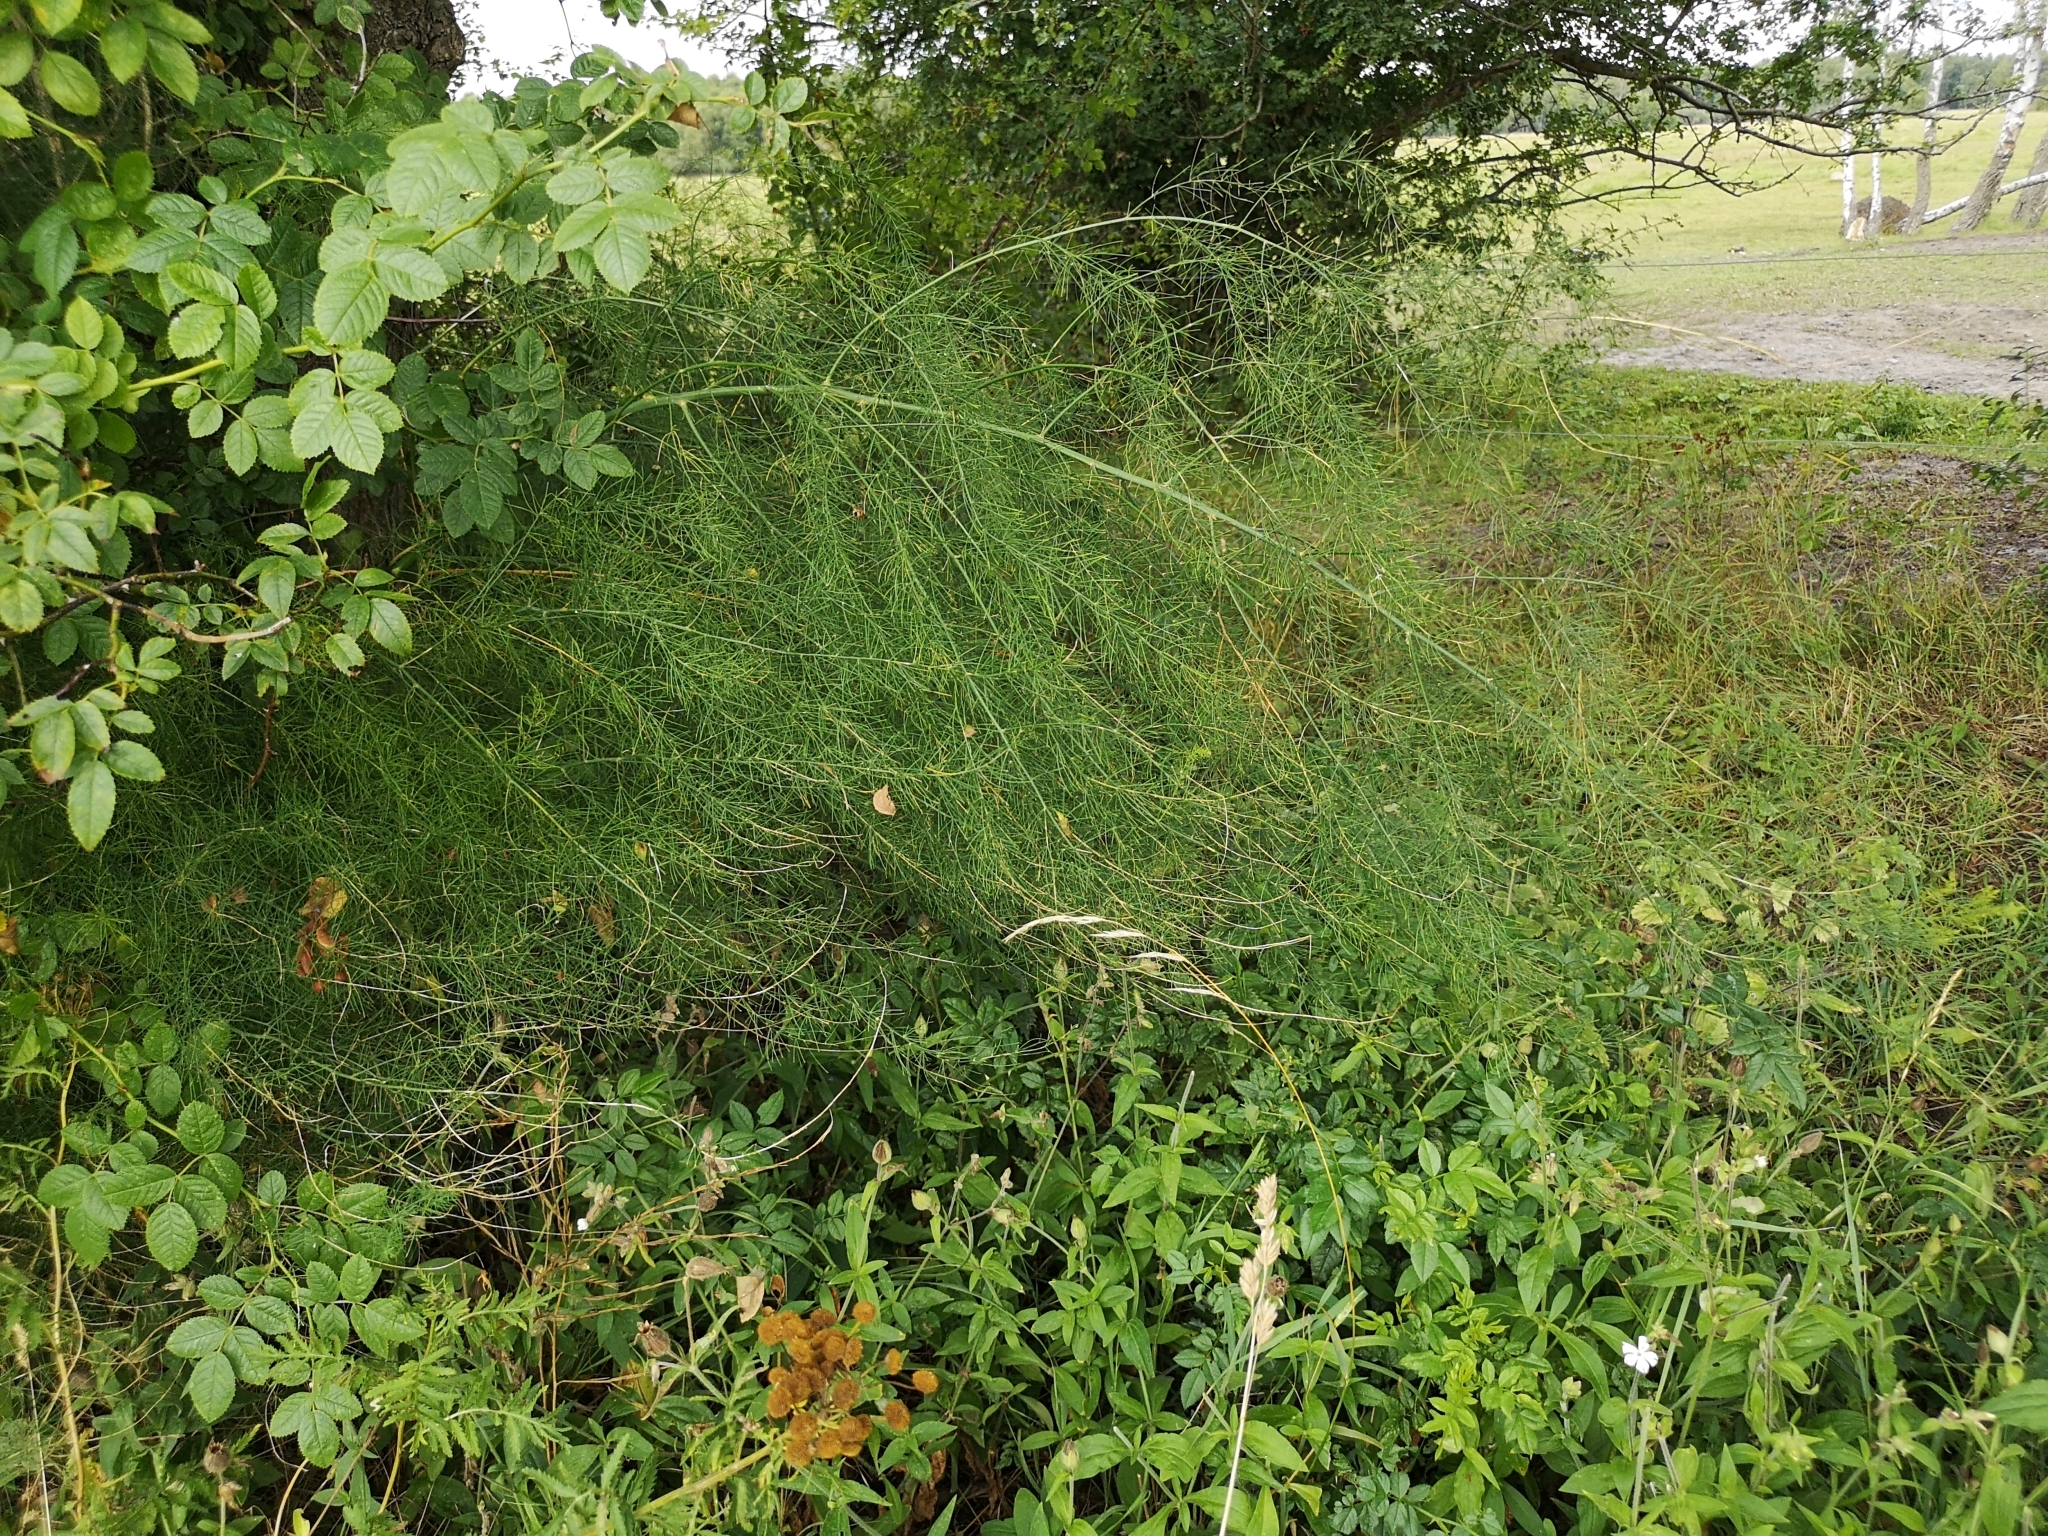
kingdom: Plantae
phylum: Tracheophyta
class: Liliopsida
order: Asparagales
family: Asparagaceae
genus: Asparagus
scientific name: Asparagus officinalis
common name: Garden asparagus
